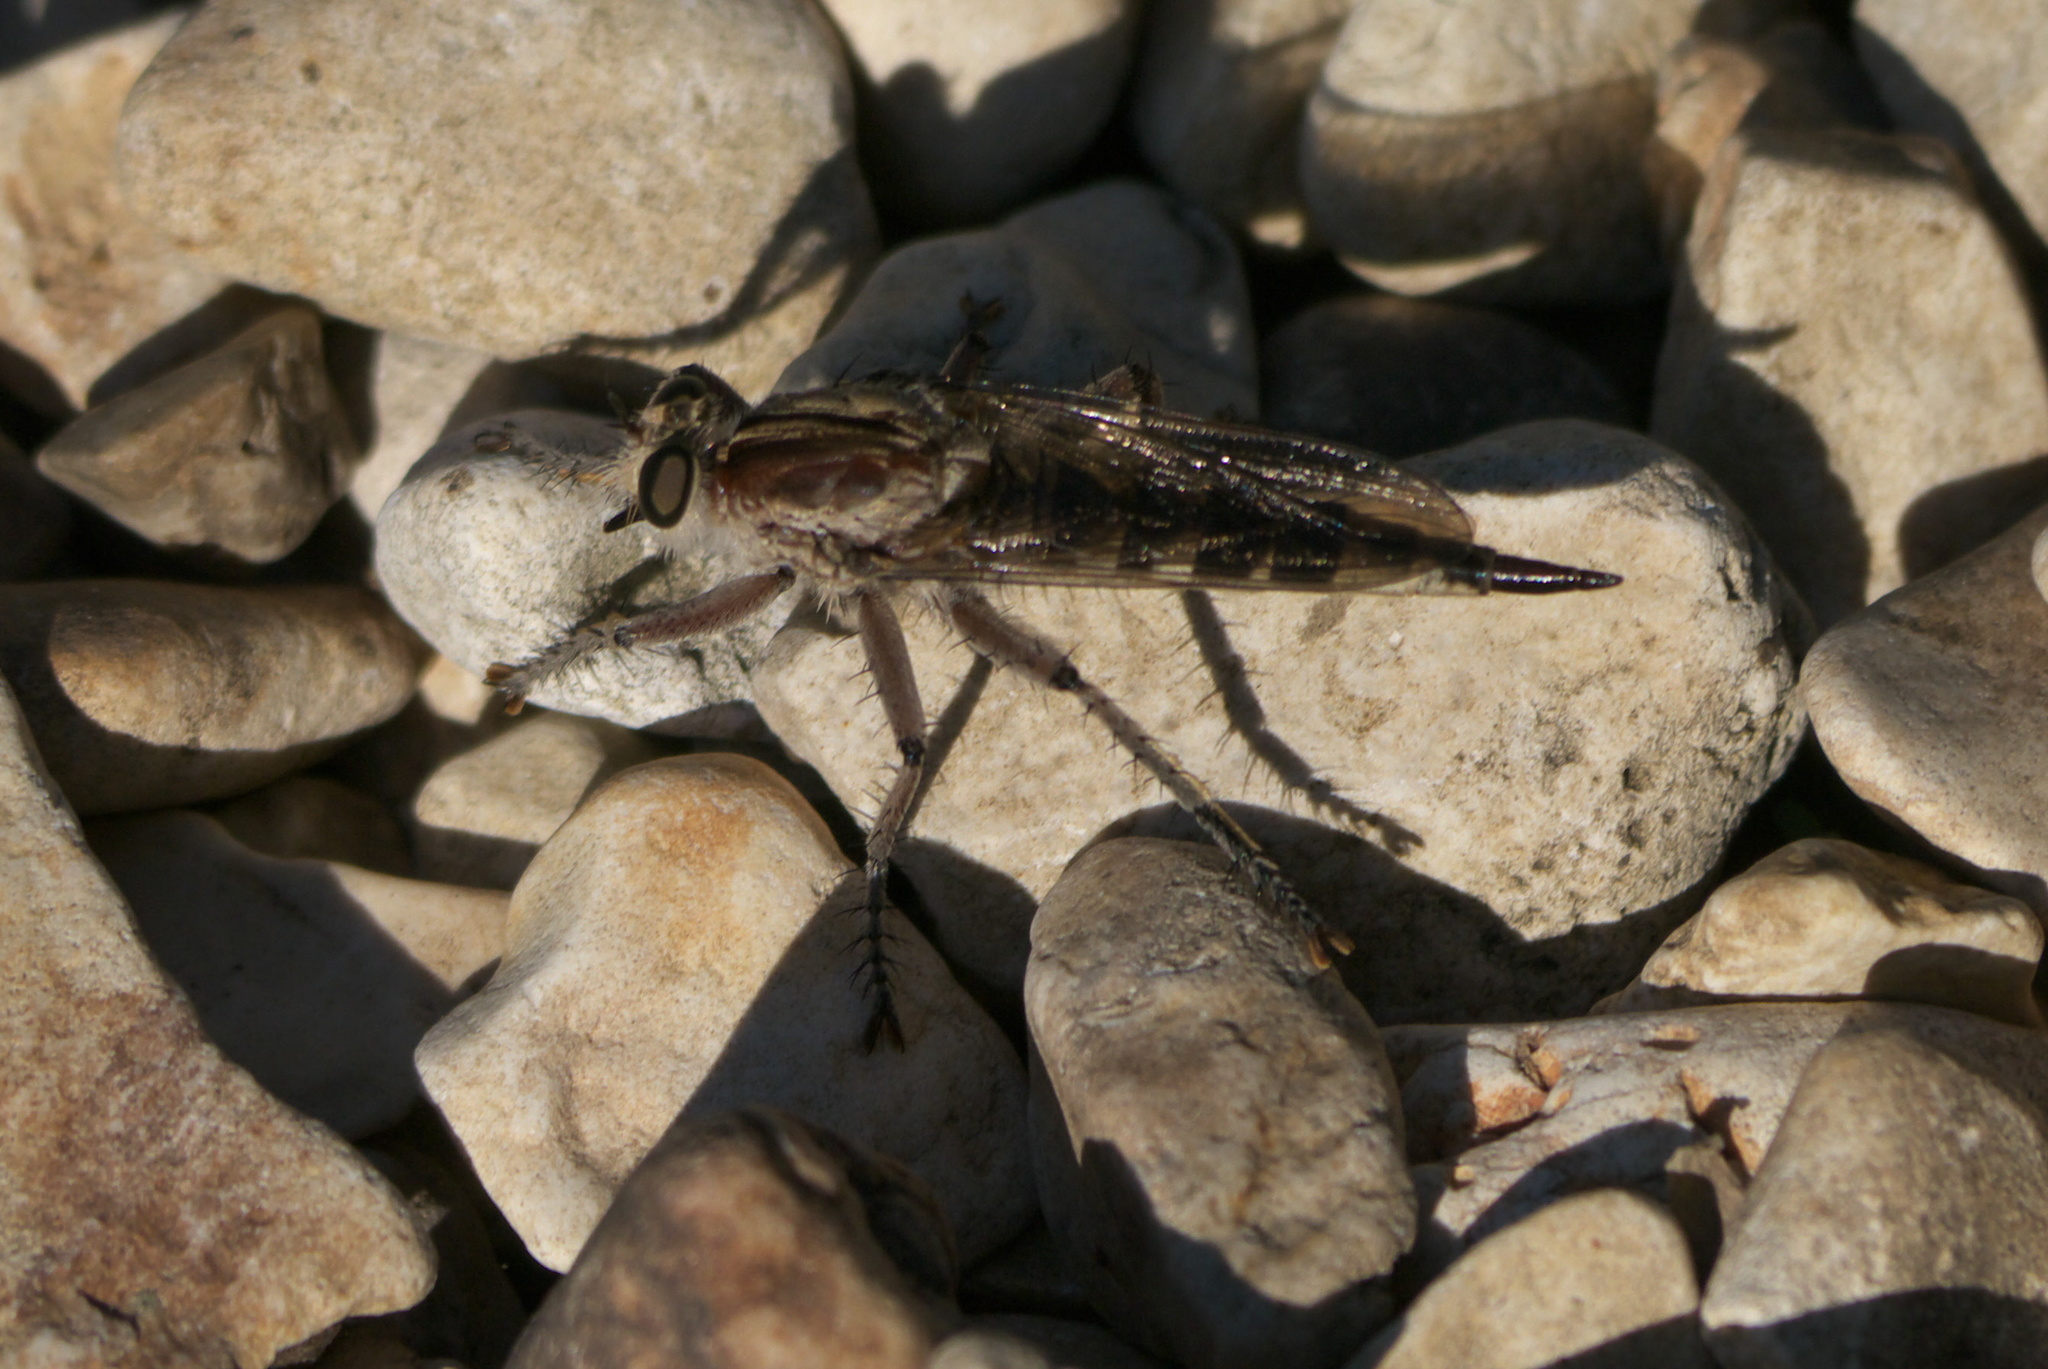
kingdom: Animalia
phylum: Arthropoda
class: Insecta
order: Diptera
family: Asilidae
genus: Triorla
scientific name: Triorla interrupta
